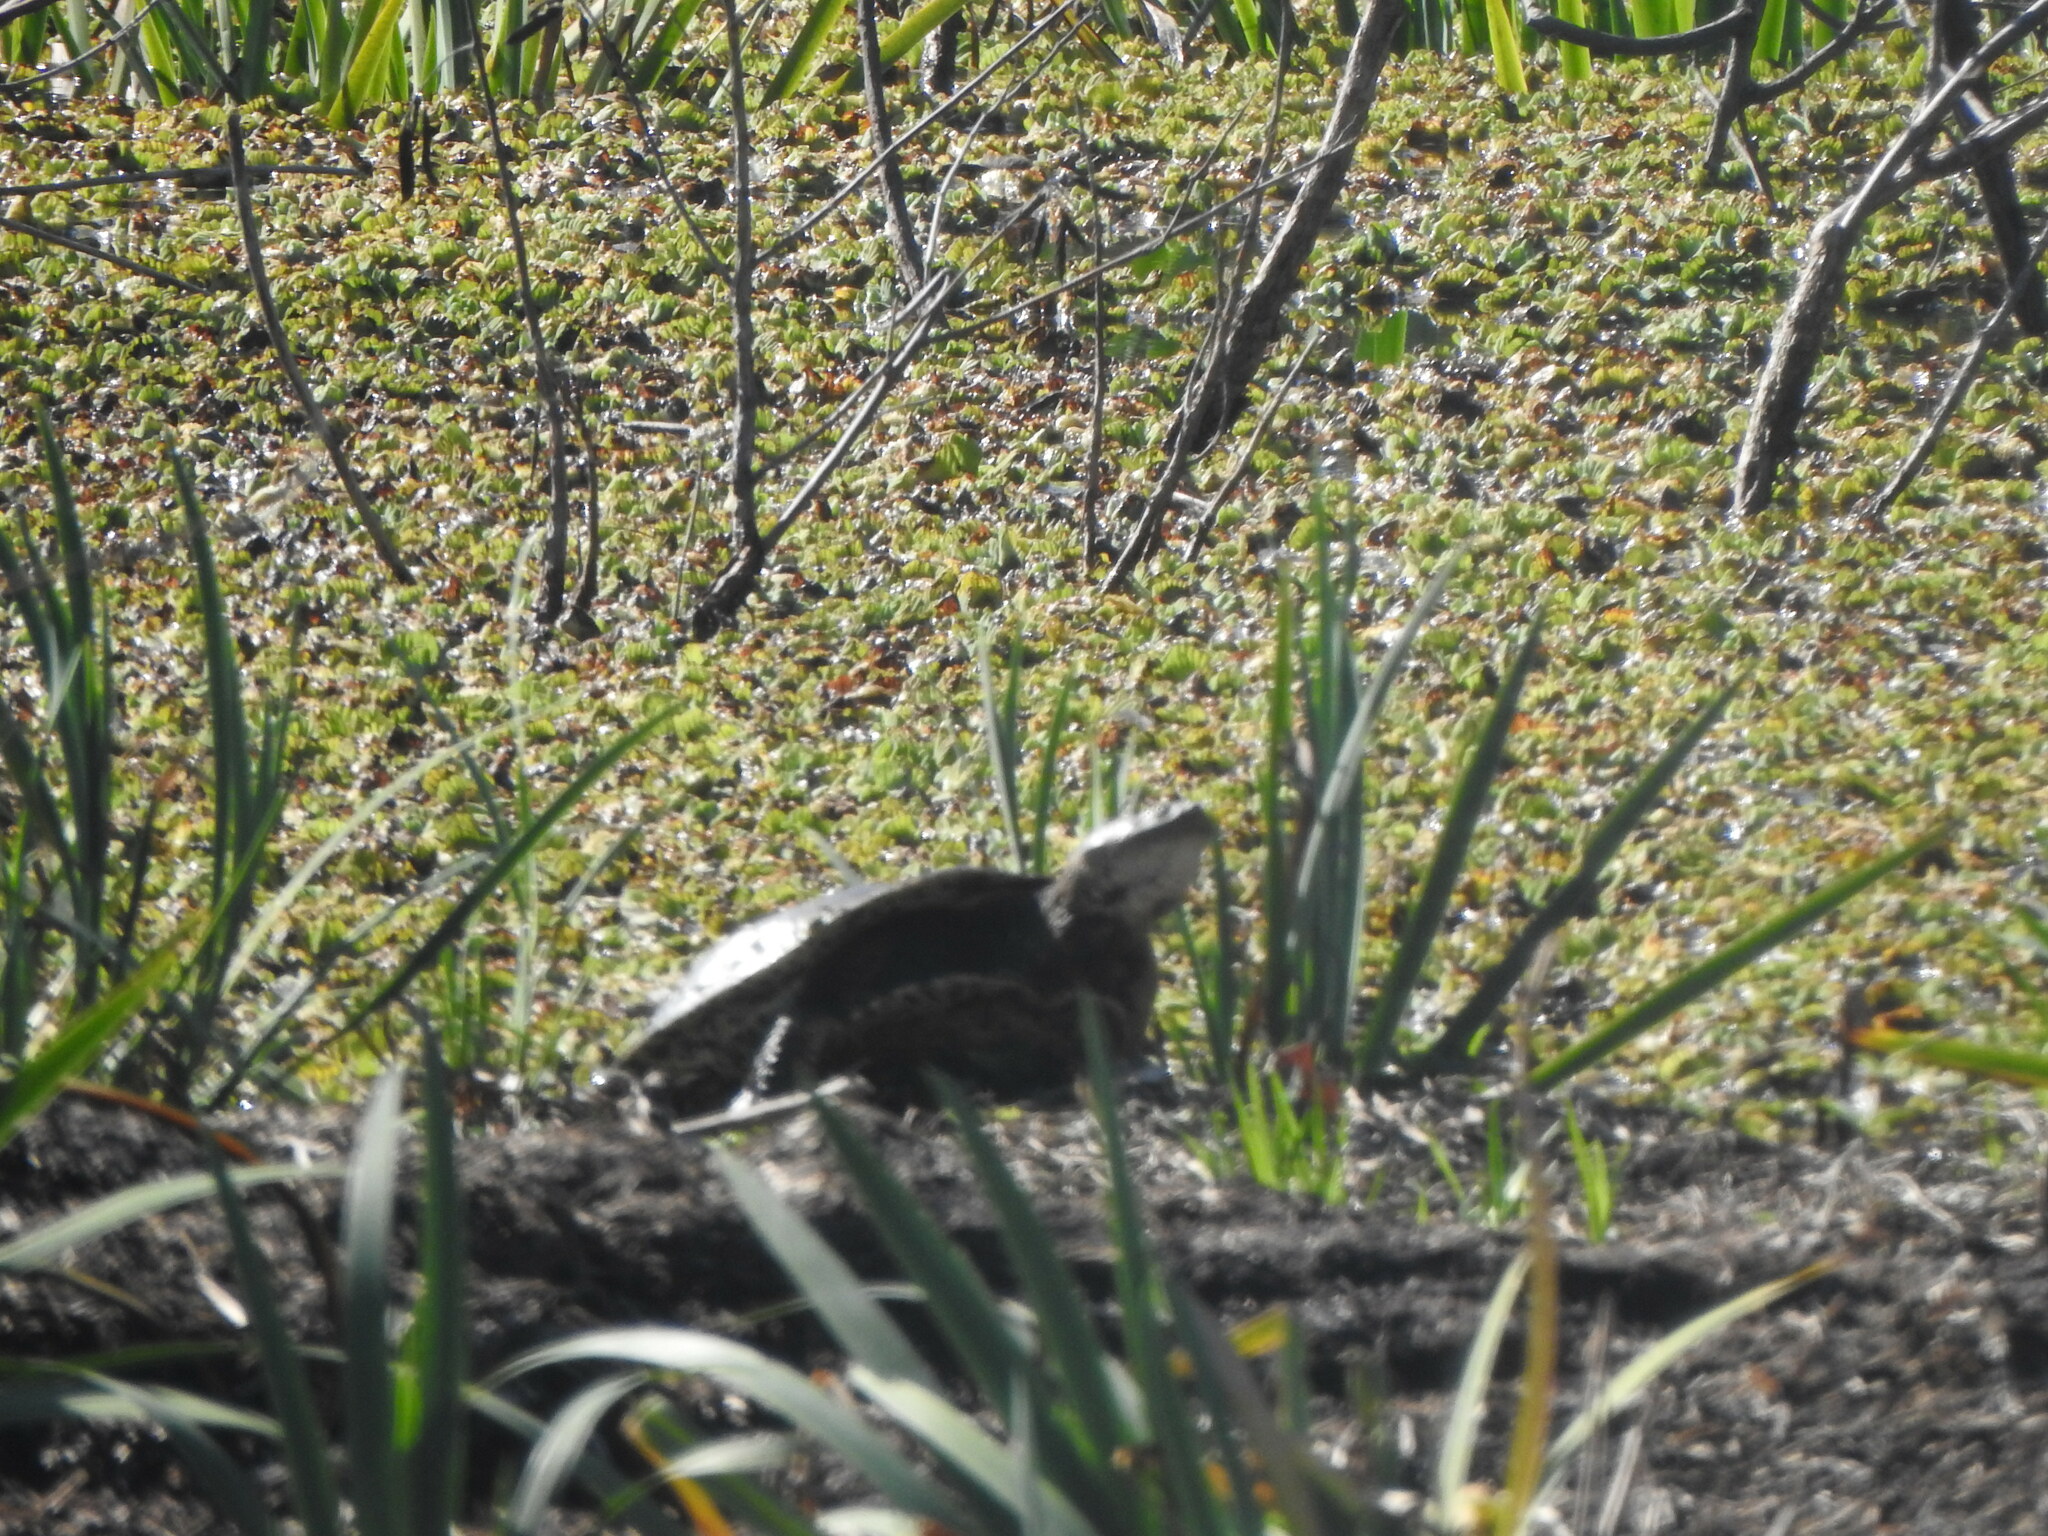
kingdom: Animalia
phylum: Chordata
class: Testudines
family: Chelidae
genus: Phrynops
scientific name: Phrynops hilarii
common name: Side-necked turtle of saint hillaire
